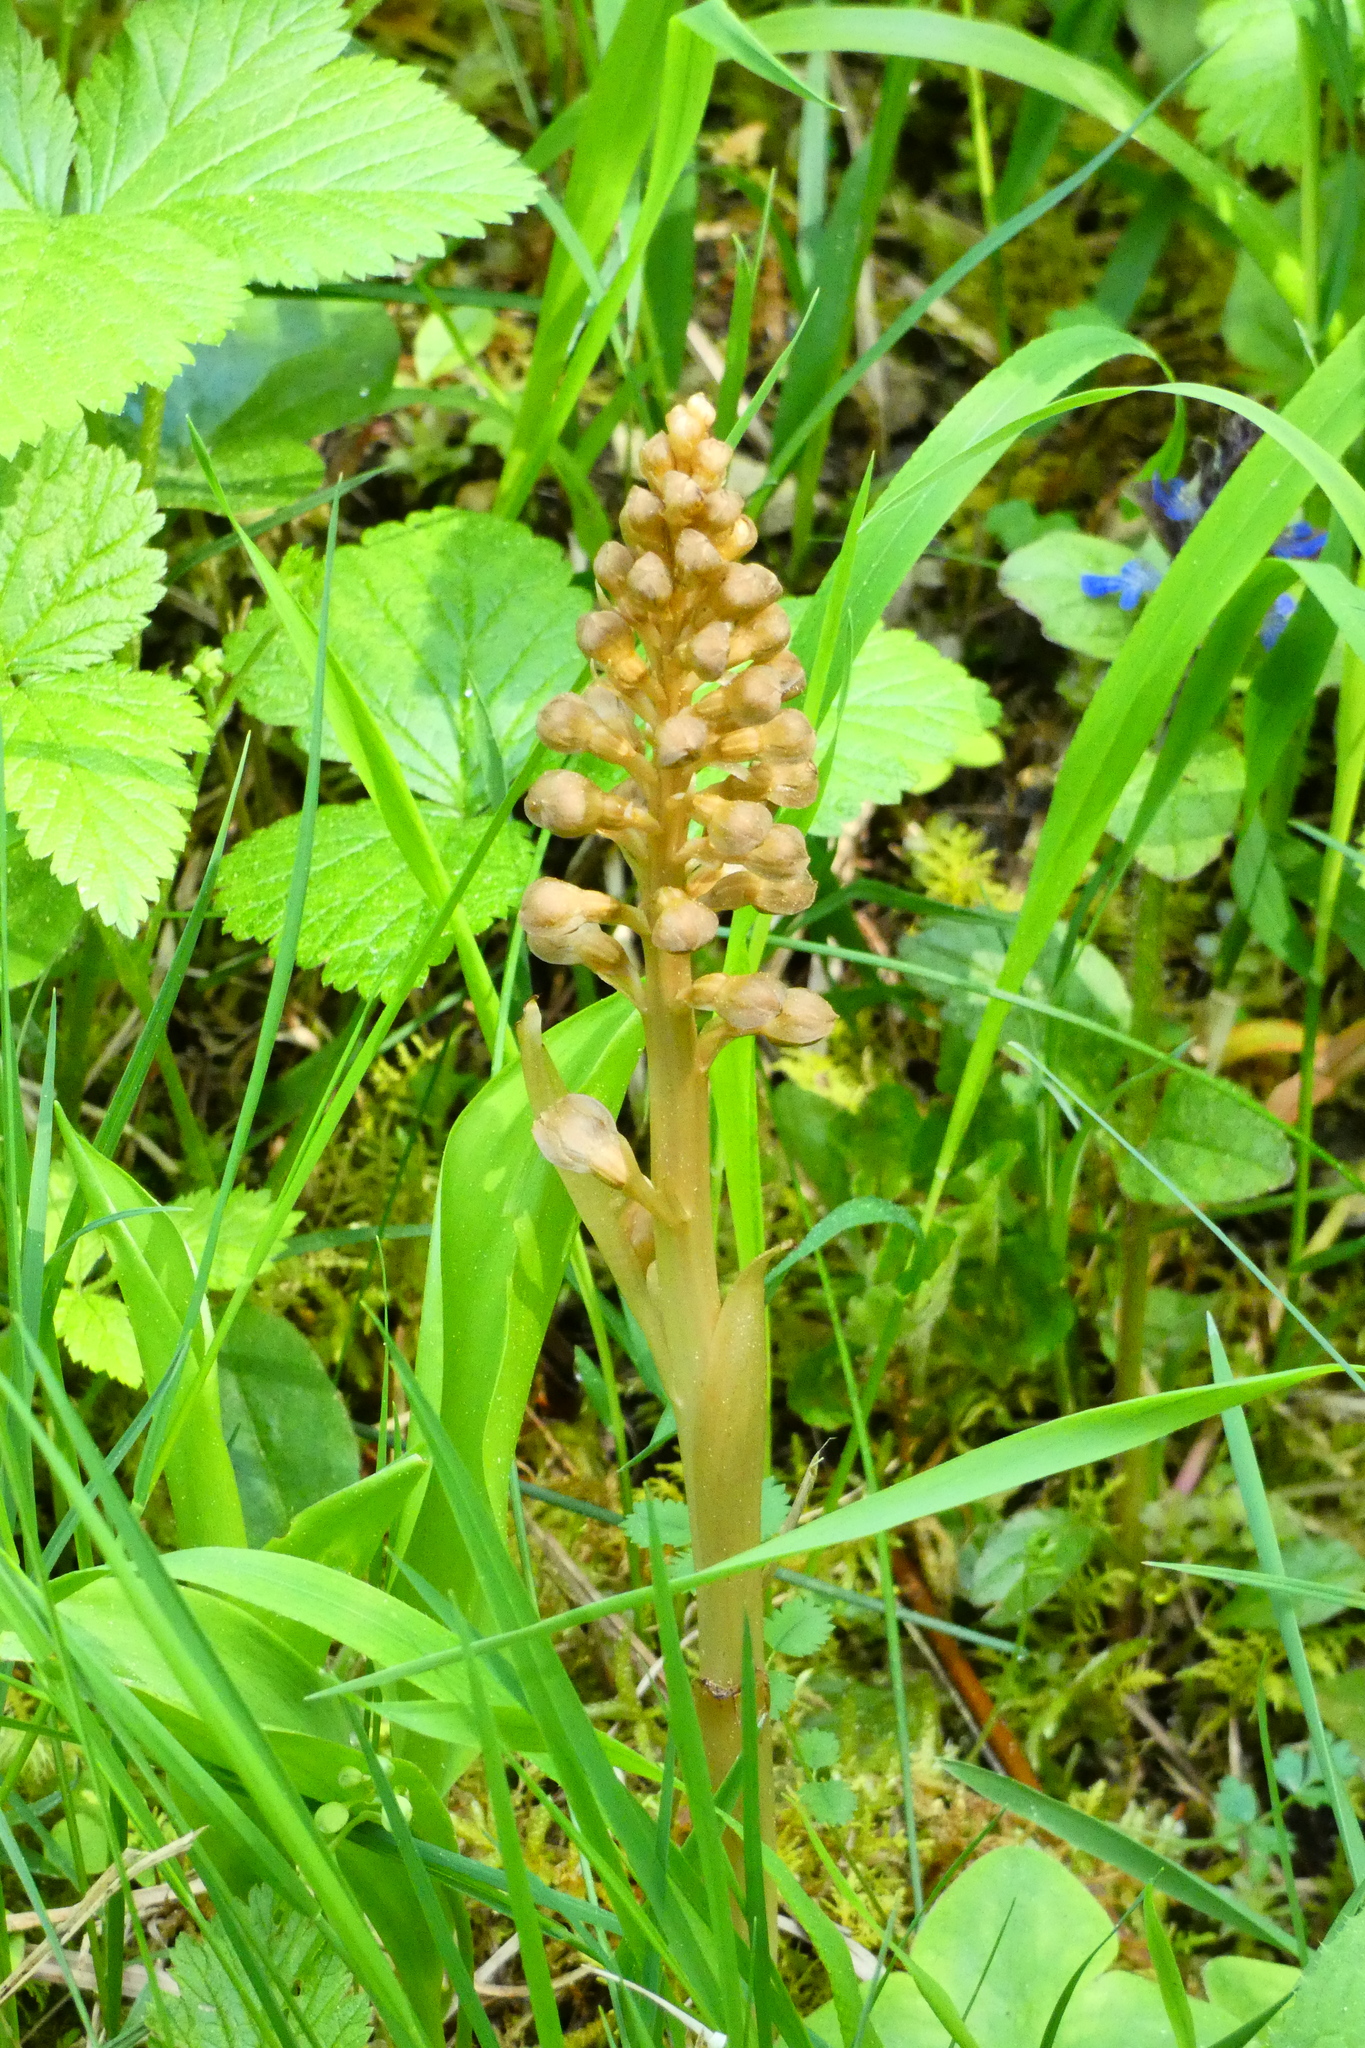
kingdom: Plantae
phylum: Tracheophyta
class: Liliopsida
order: Asparagales
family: Orchidaceae
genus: Neottia
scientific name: Neottia nidus-avis
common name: Bird's-nest orchid
